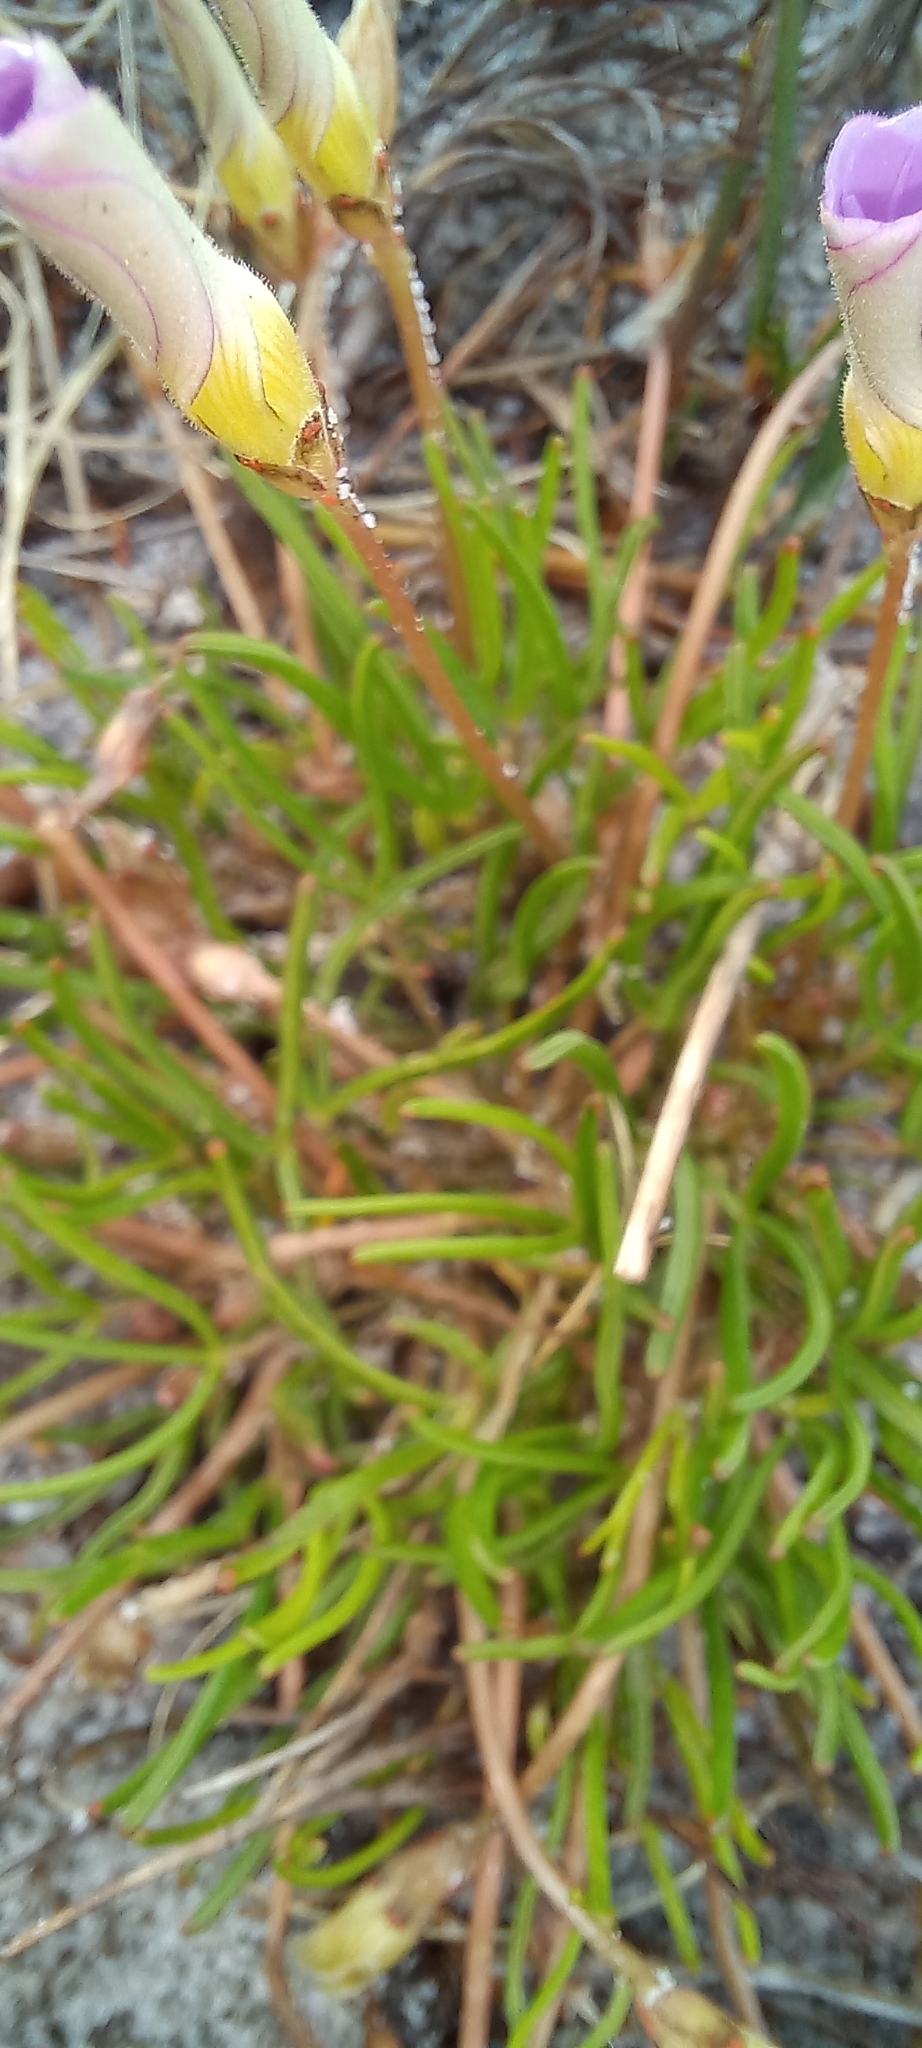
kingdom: Plantae
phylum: Tracheophyta
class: Magnoliopsida
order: Oxalidales
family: Oxalidaceae
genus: Oxalis
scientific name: Oxalis polyphylla
